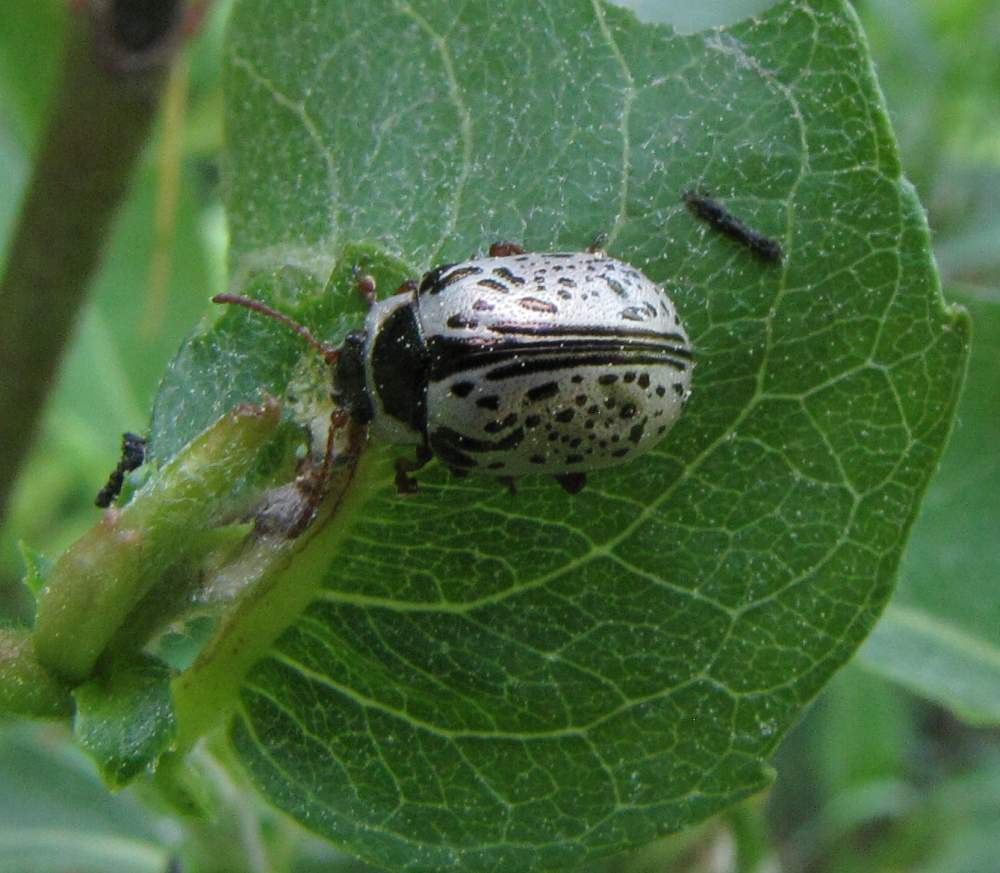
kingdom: Animalia
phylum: Arthropoda
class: Insecta
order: Coleoptera
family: Chrysomelidae
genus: Calligrapha
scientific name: Calligrapha multipunctata
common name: Common willow calligrapher beetle
